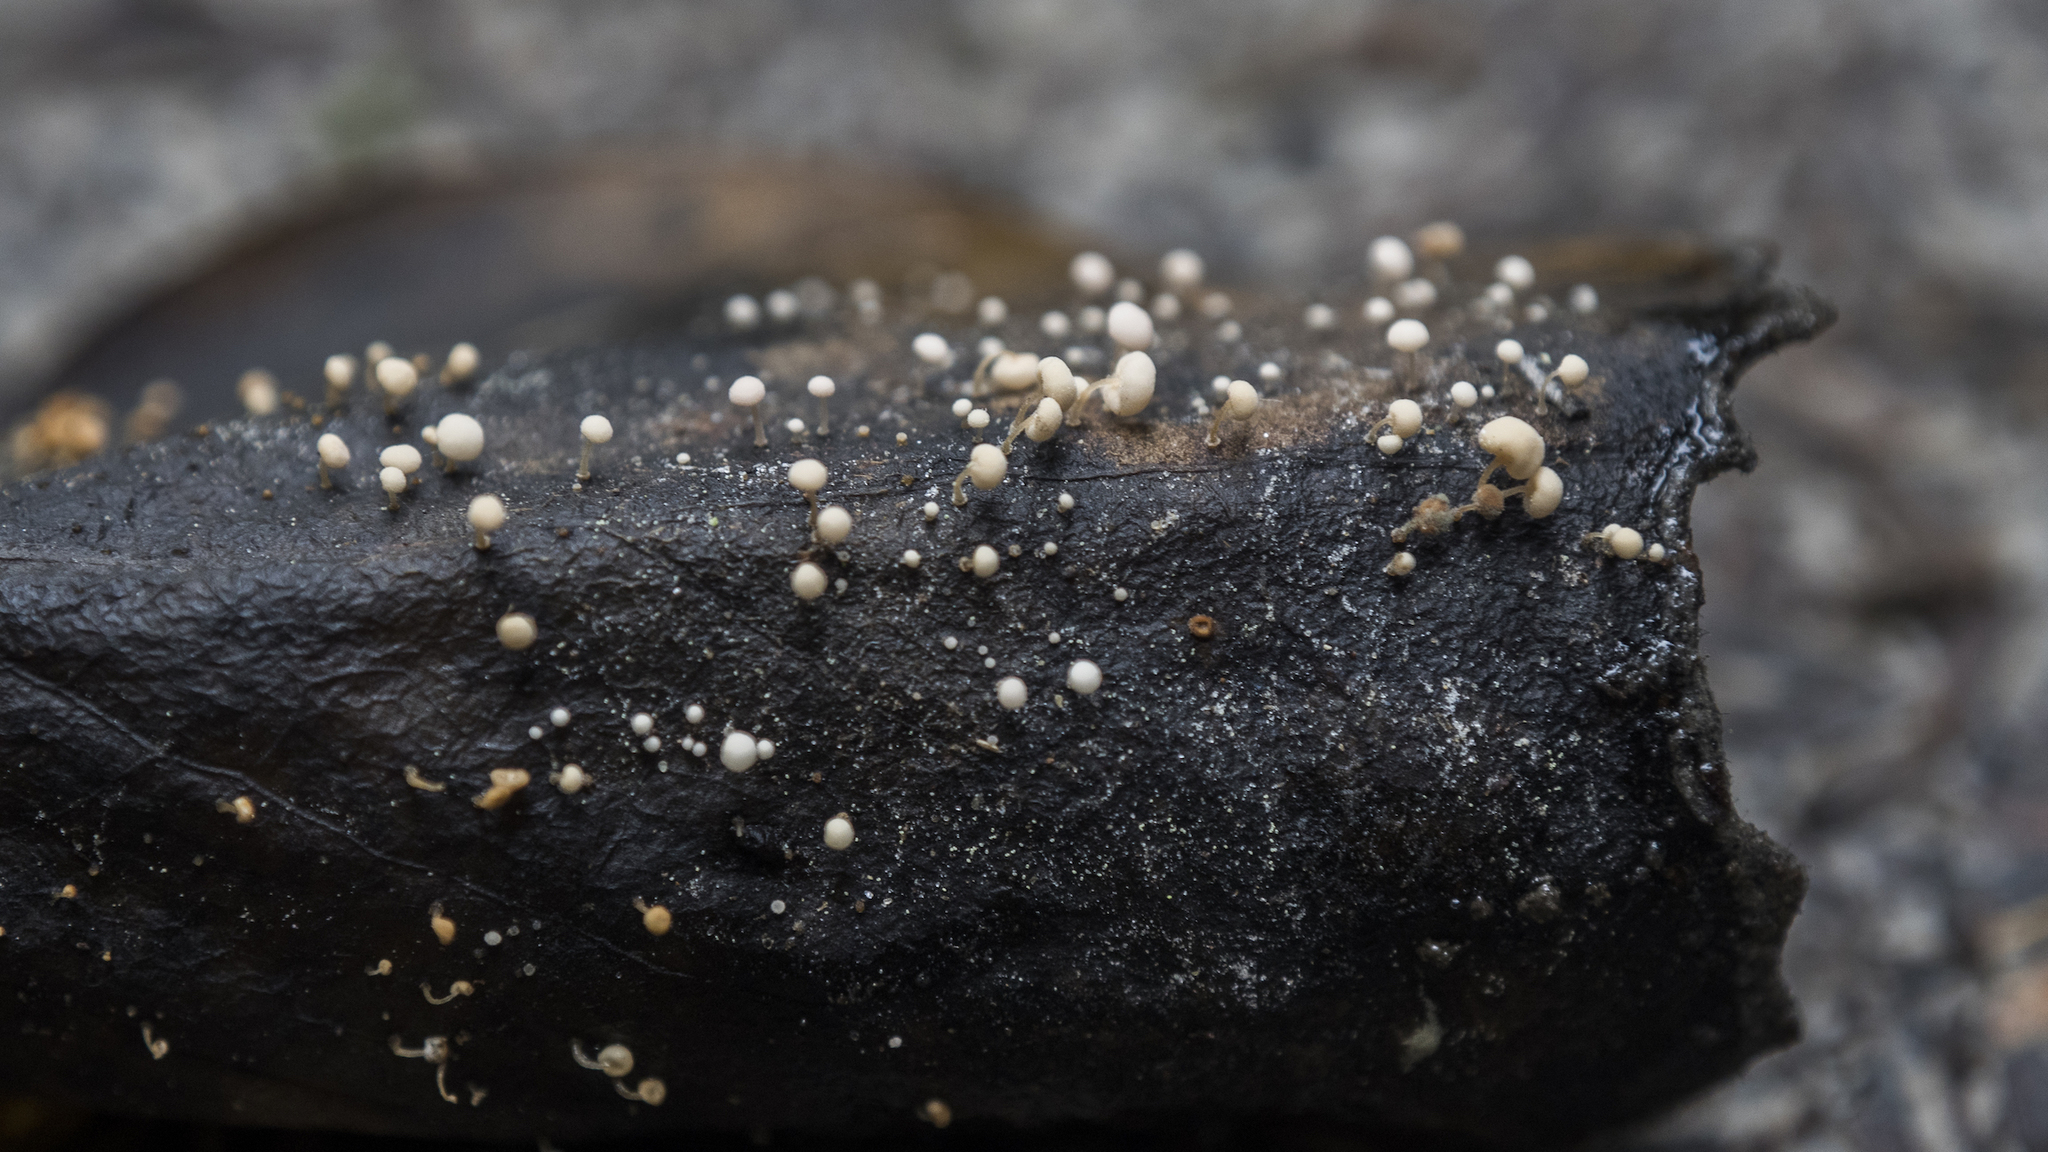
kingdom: Fungi
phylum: Basidiomycota
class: Agaricomycetes
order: Agaricales
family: Physalacriaceae
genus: Physalacria
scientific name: Physalacria stilboidea
